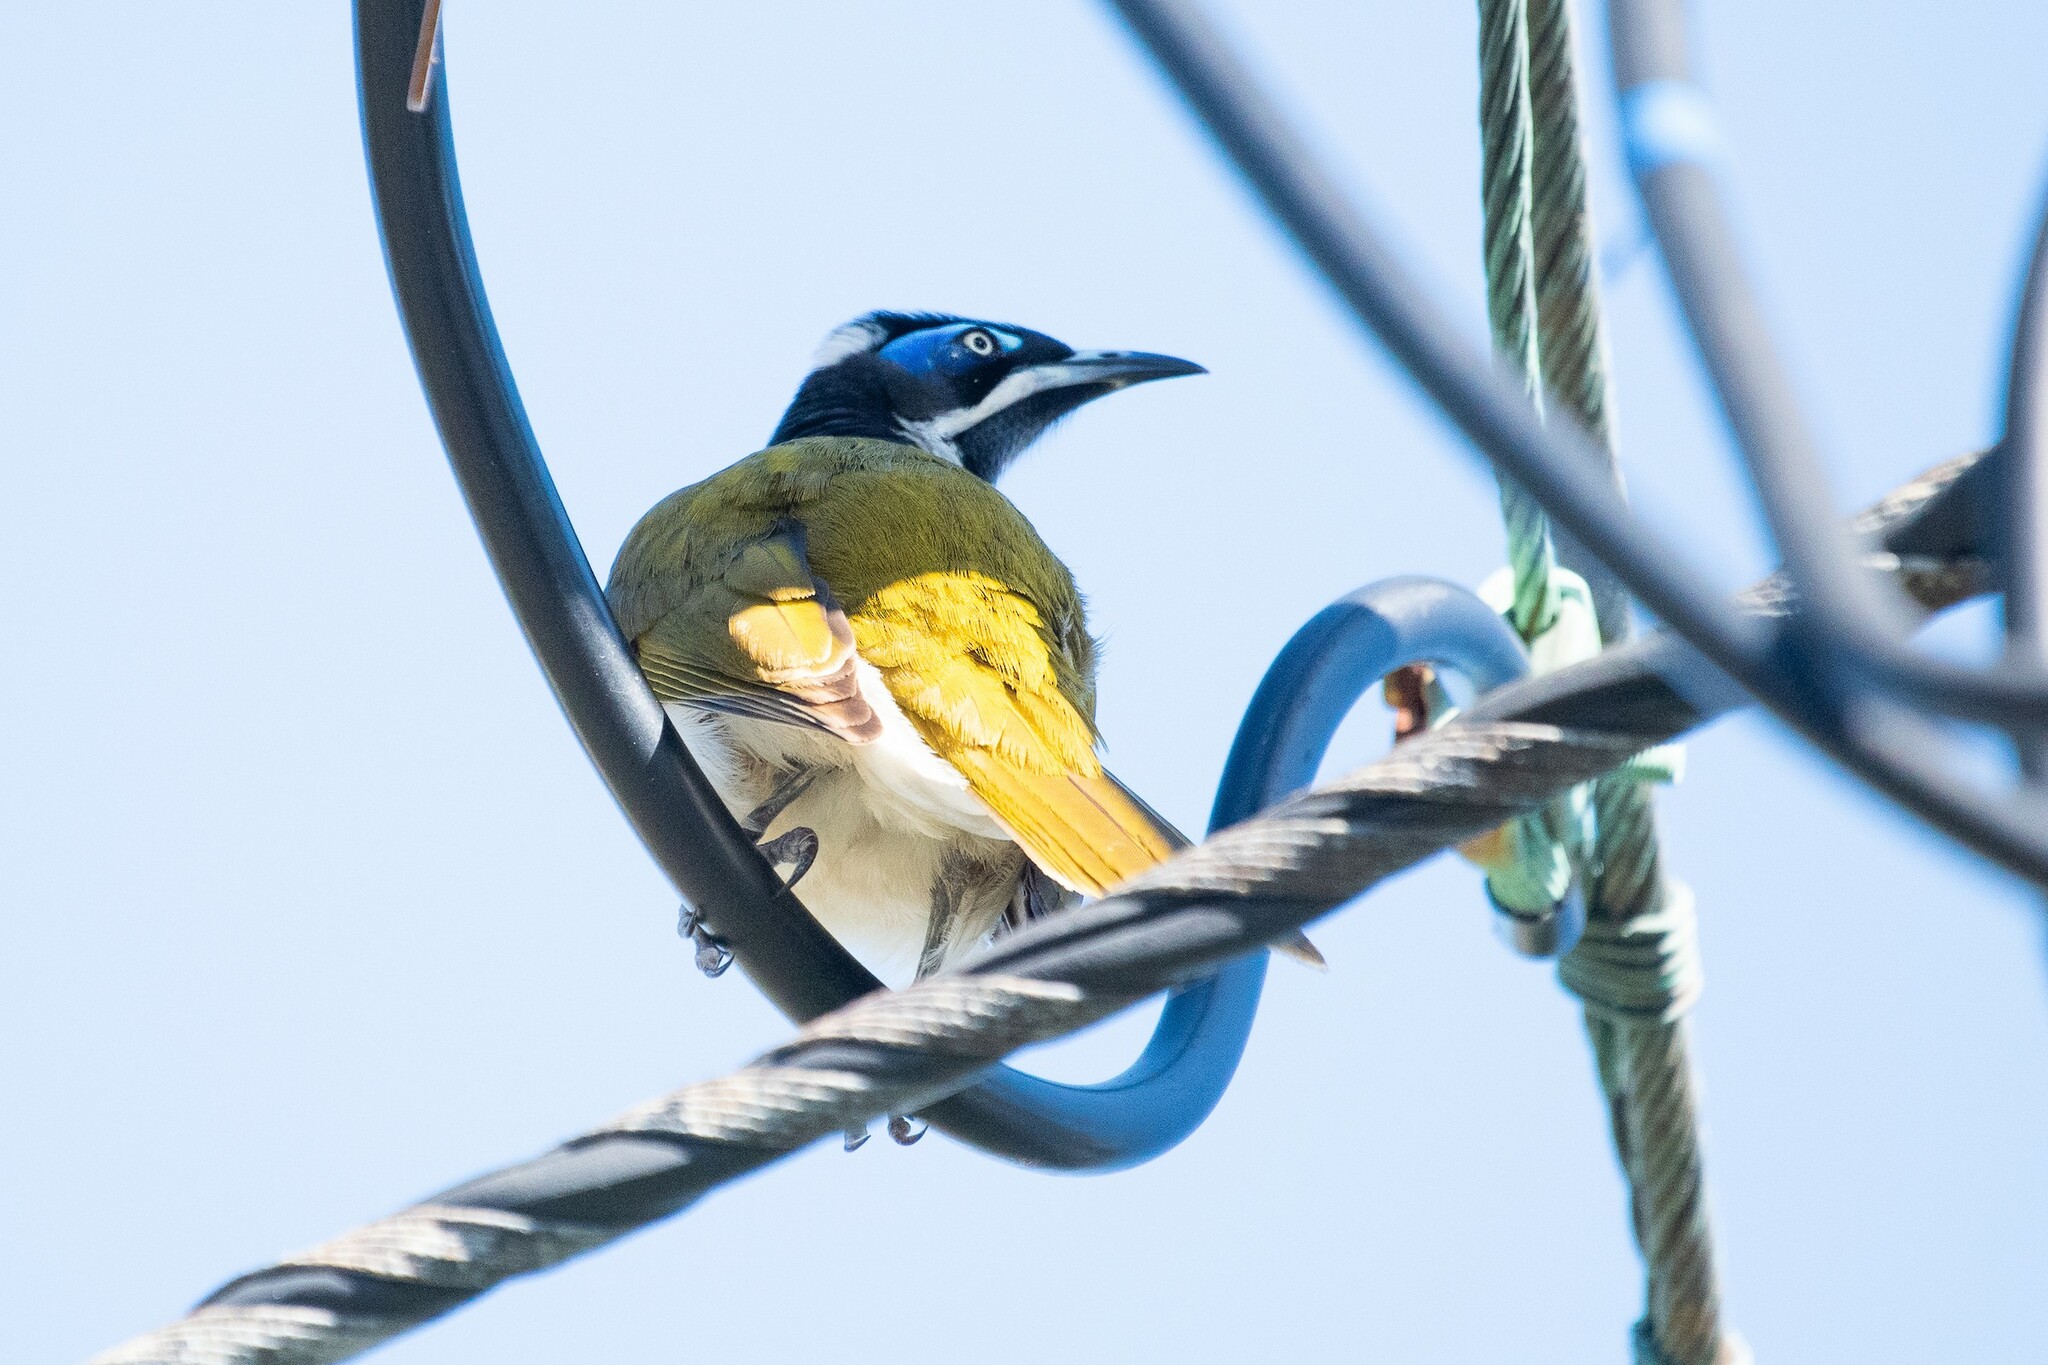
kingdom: Animalia
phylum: Chordata
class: Aves
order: Passeriformes
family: Meliphagidae
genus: Entomyzon
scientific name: Entomyzon cyanotis
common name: Blue-faced honeyeater
